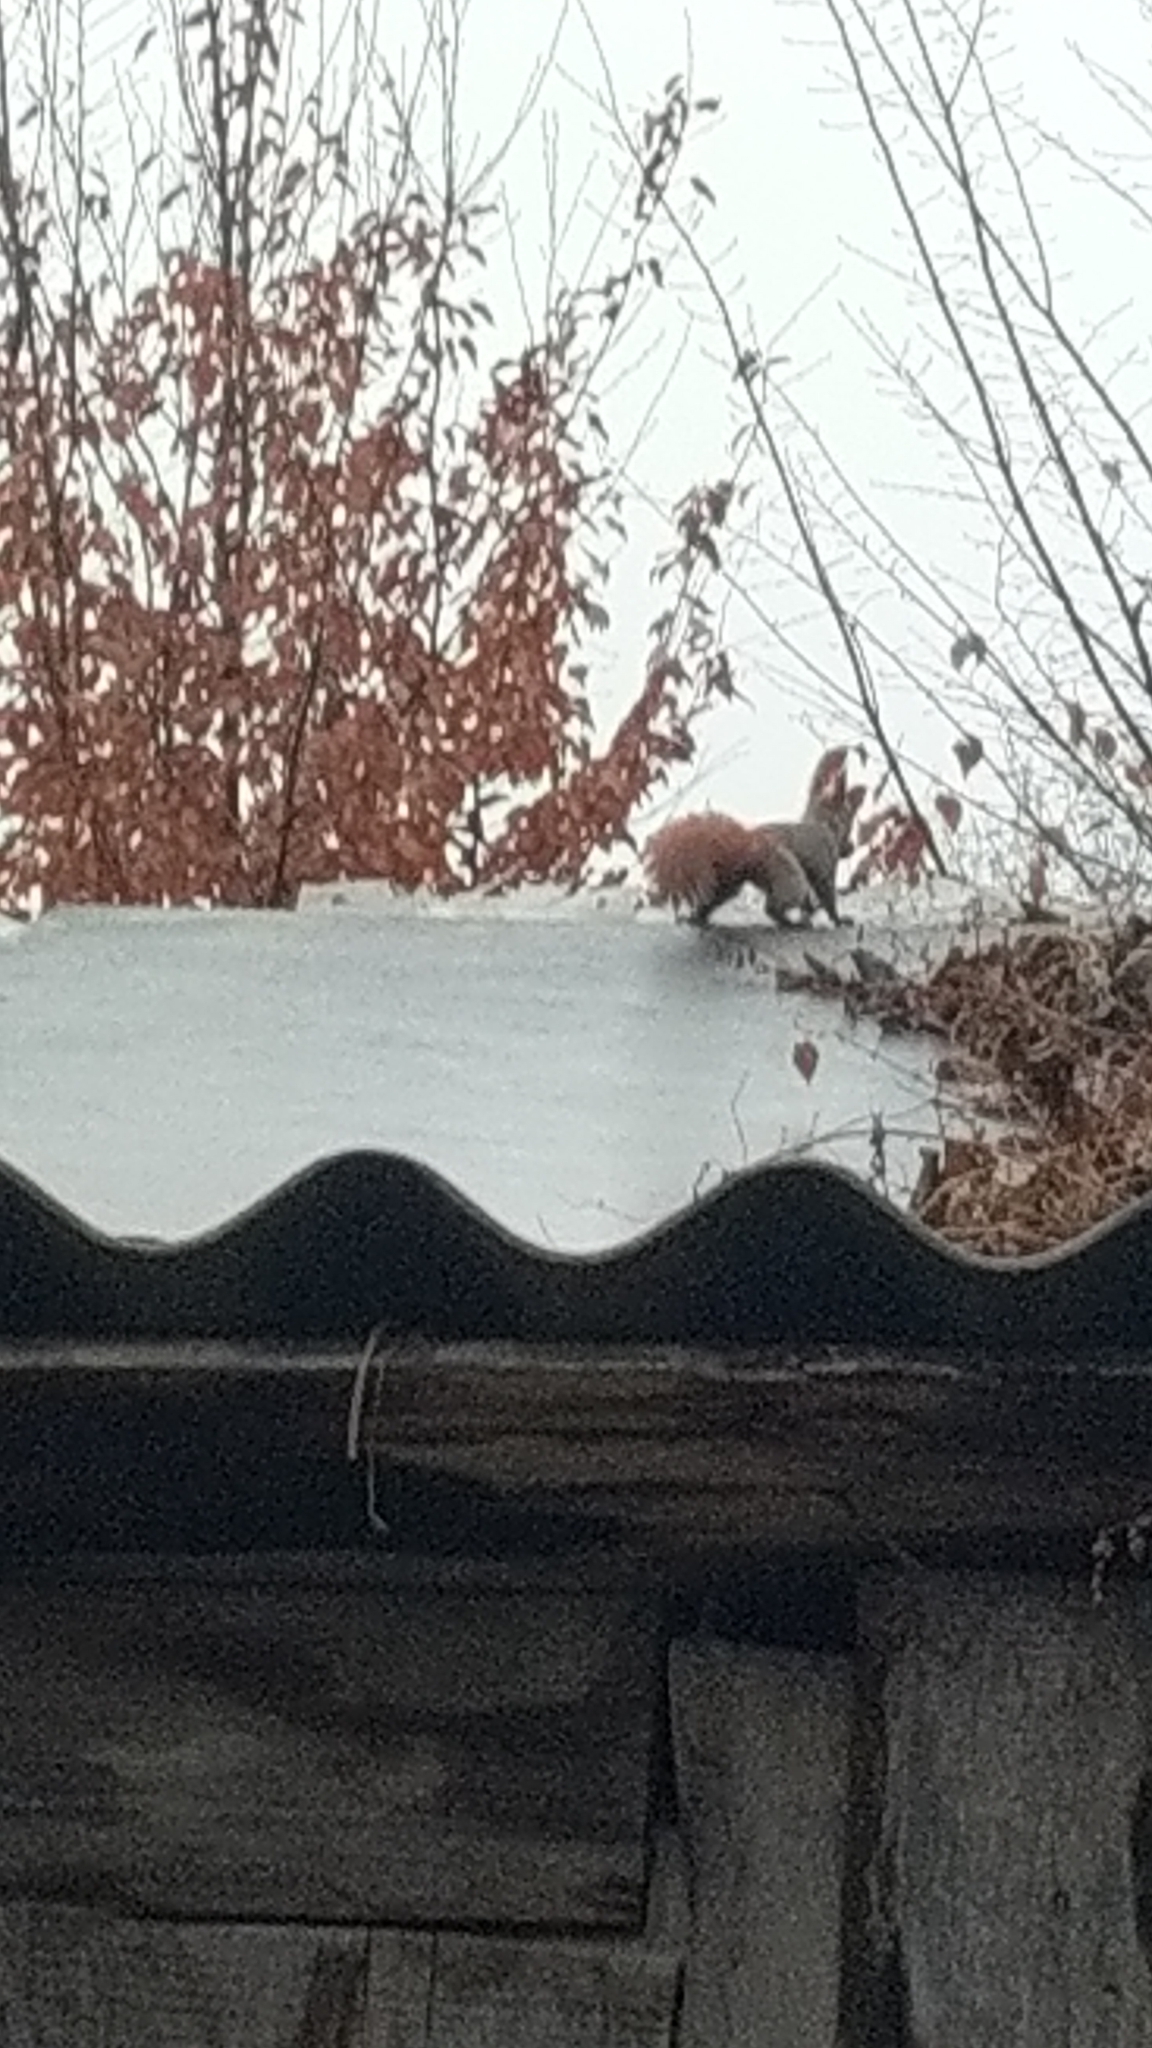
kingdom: Animalia
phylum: Chordata
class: Mammalia
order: Rodentia
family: Sciuridae
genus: Sciurus
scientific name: Sciurus vulgaris
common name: Eurasian red squirrel
